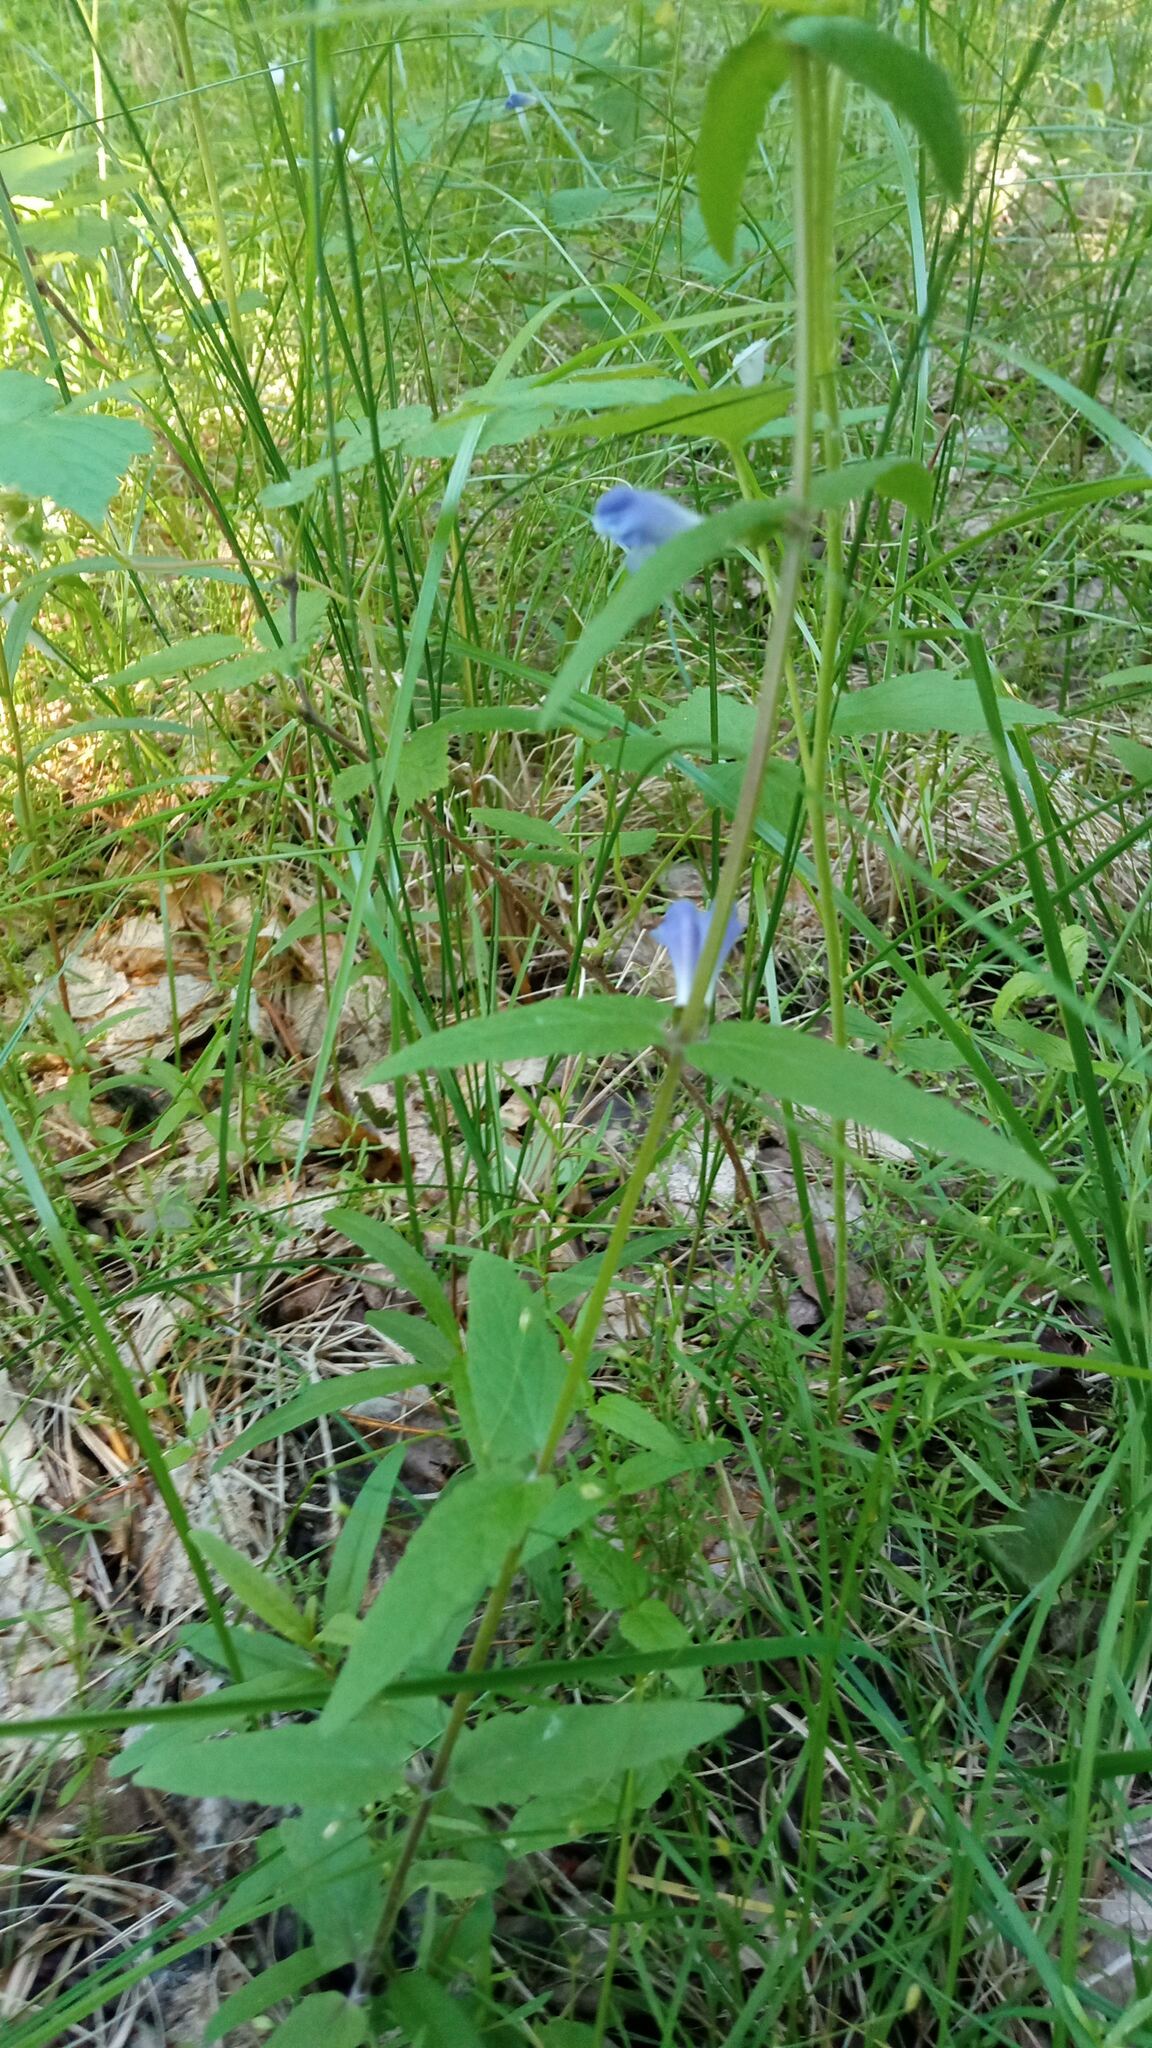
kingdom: Plantae
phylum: Tracheophyta
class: Magnoliopsida
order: Lamiales
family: Lamiaceae
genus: Scutellaria
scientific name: Scutellaria galericulata
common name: Skullcap
